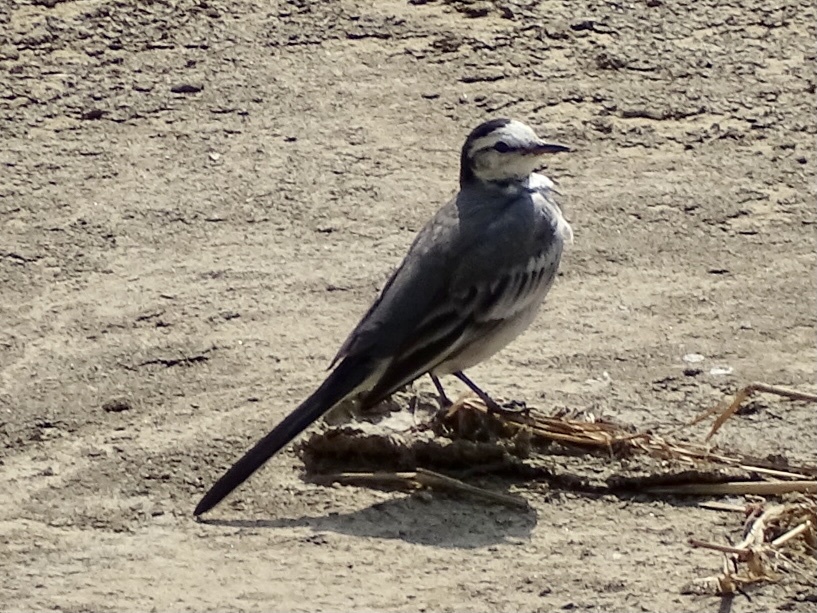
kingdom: Animalia
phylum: Chordata
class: Aves
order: Passeriformes
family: Motacillidae
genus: Motacilla
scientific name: Motacilla alba
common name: White wagtail
